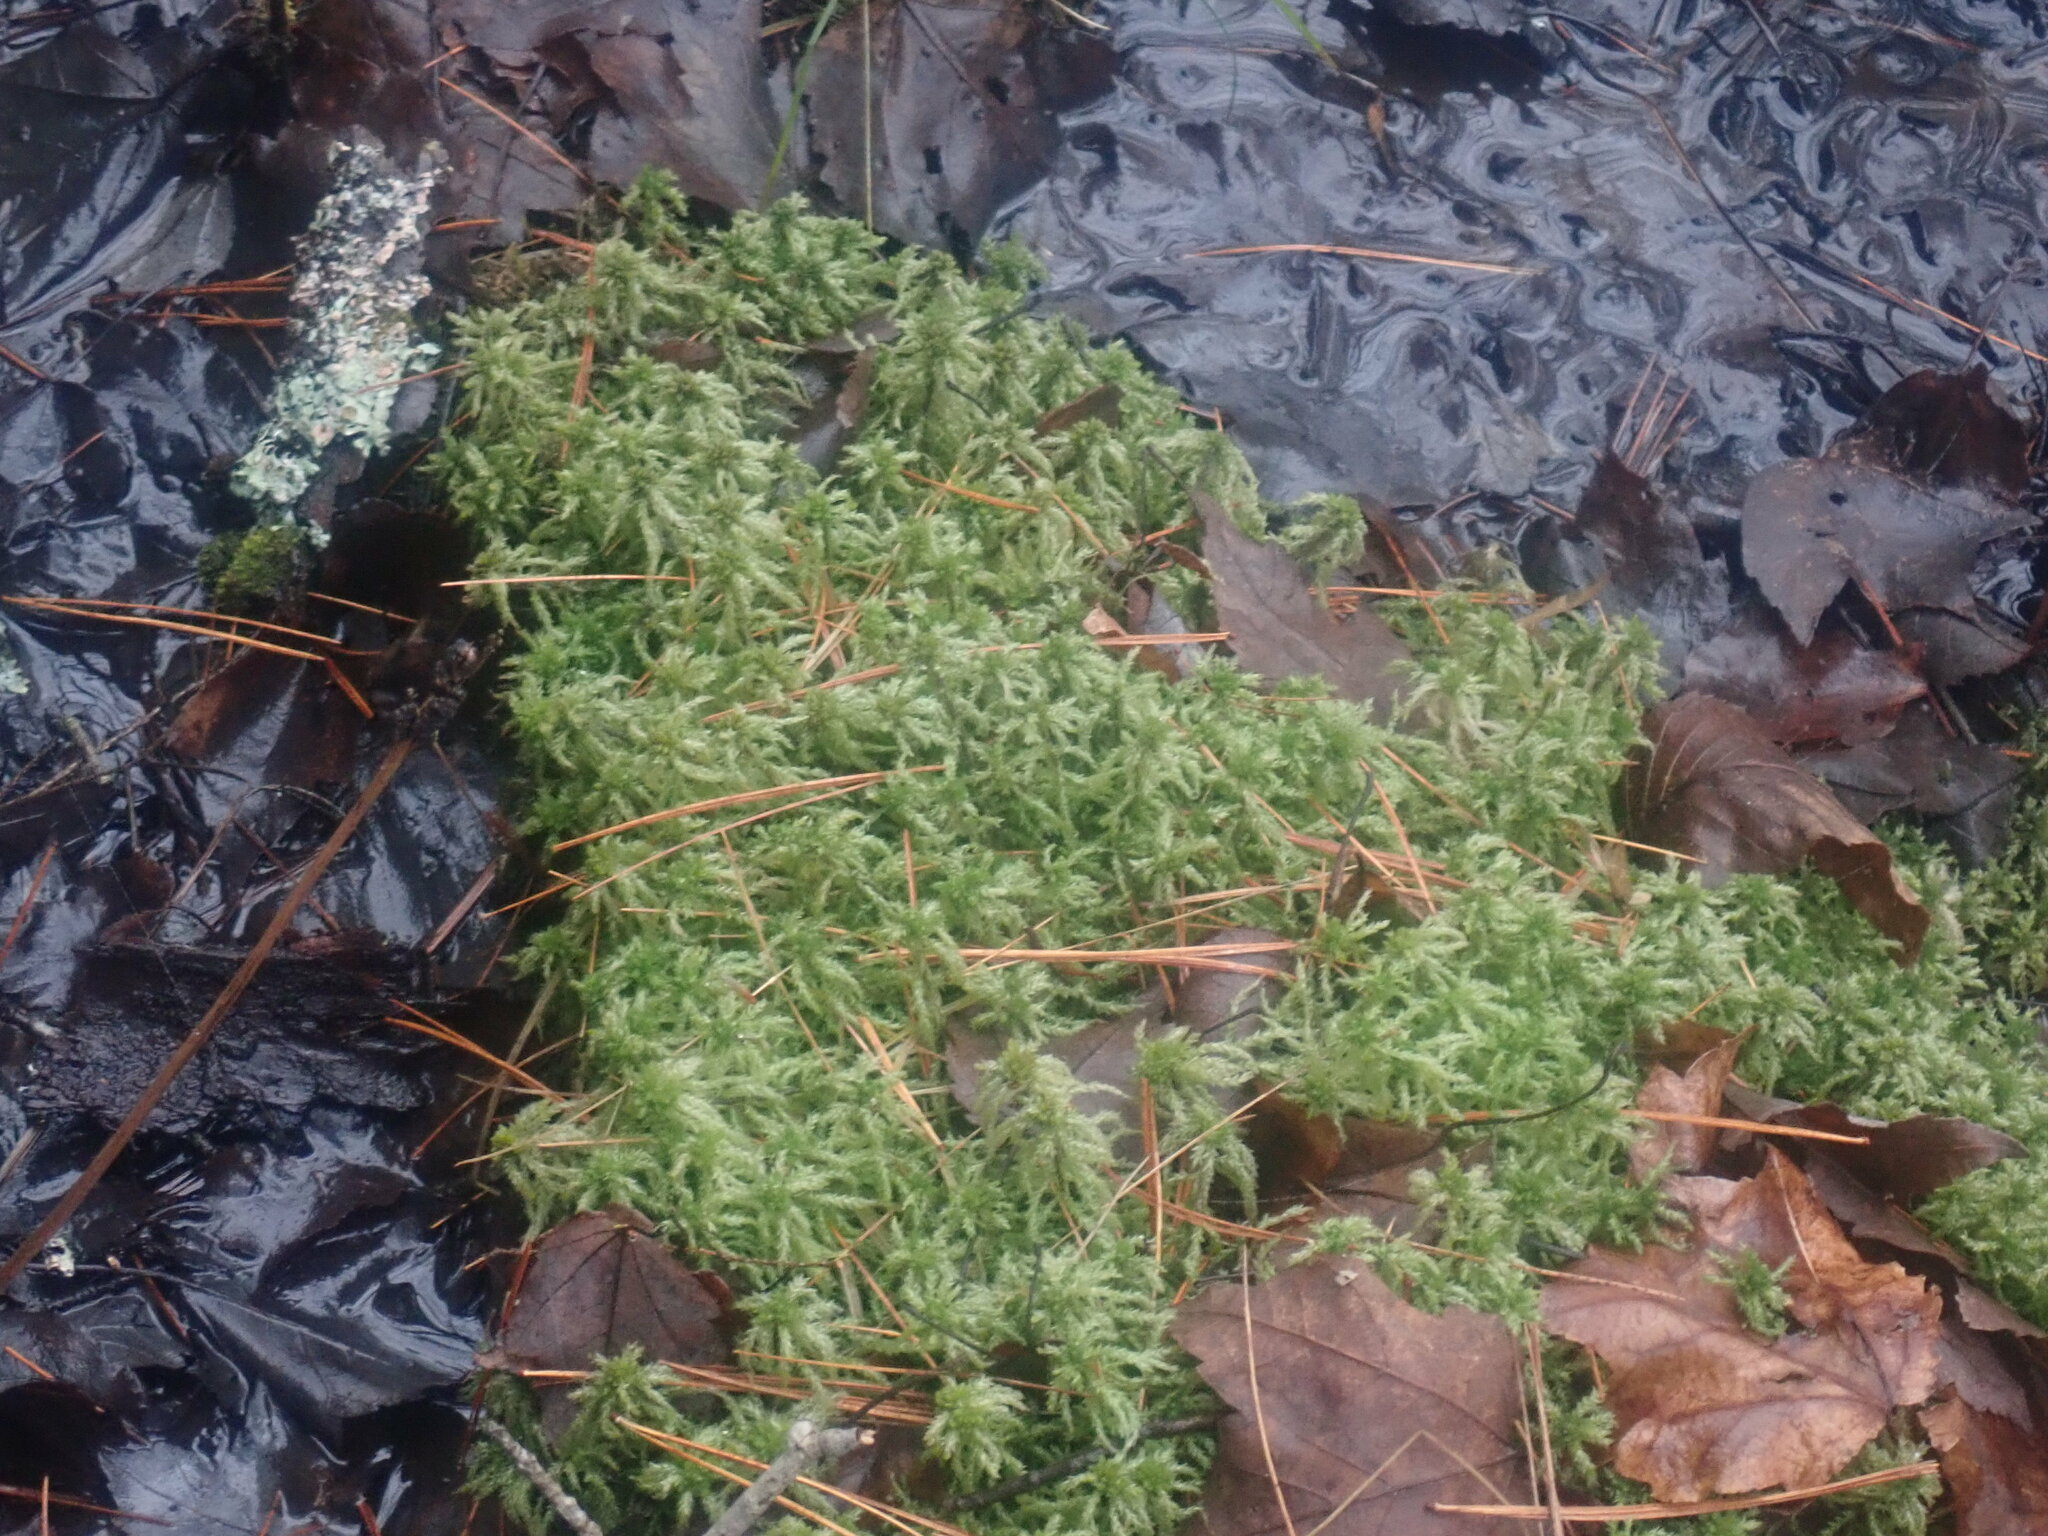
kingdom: Plantae
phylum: Bryophyta
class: Sphagnopsida
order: Sphagnales
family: Sphagnaceae
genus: Sphagnum
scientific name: Sphagnum
